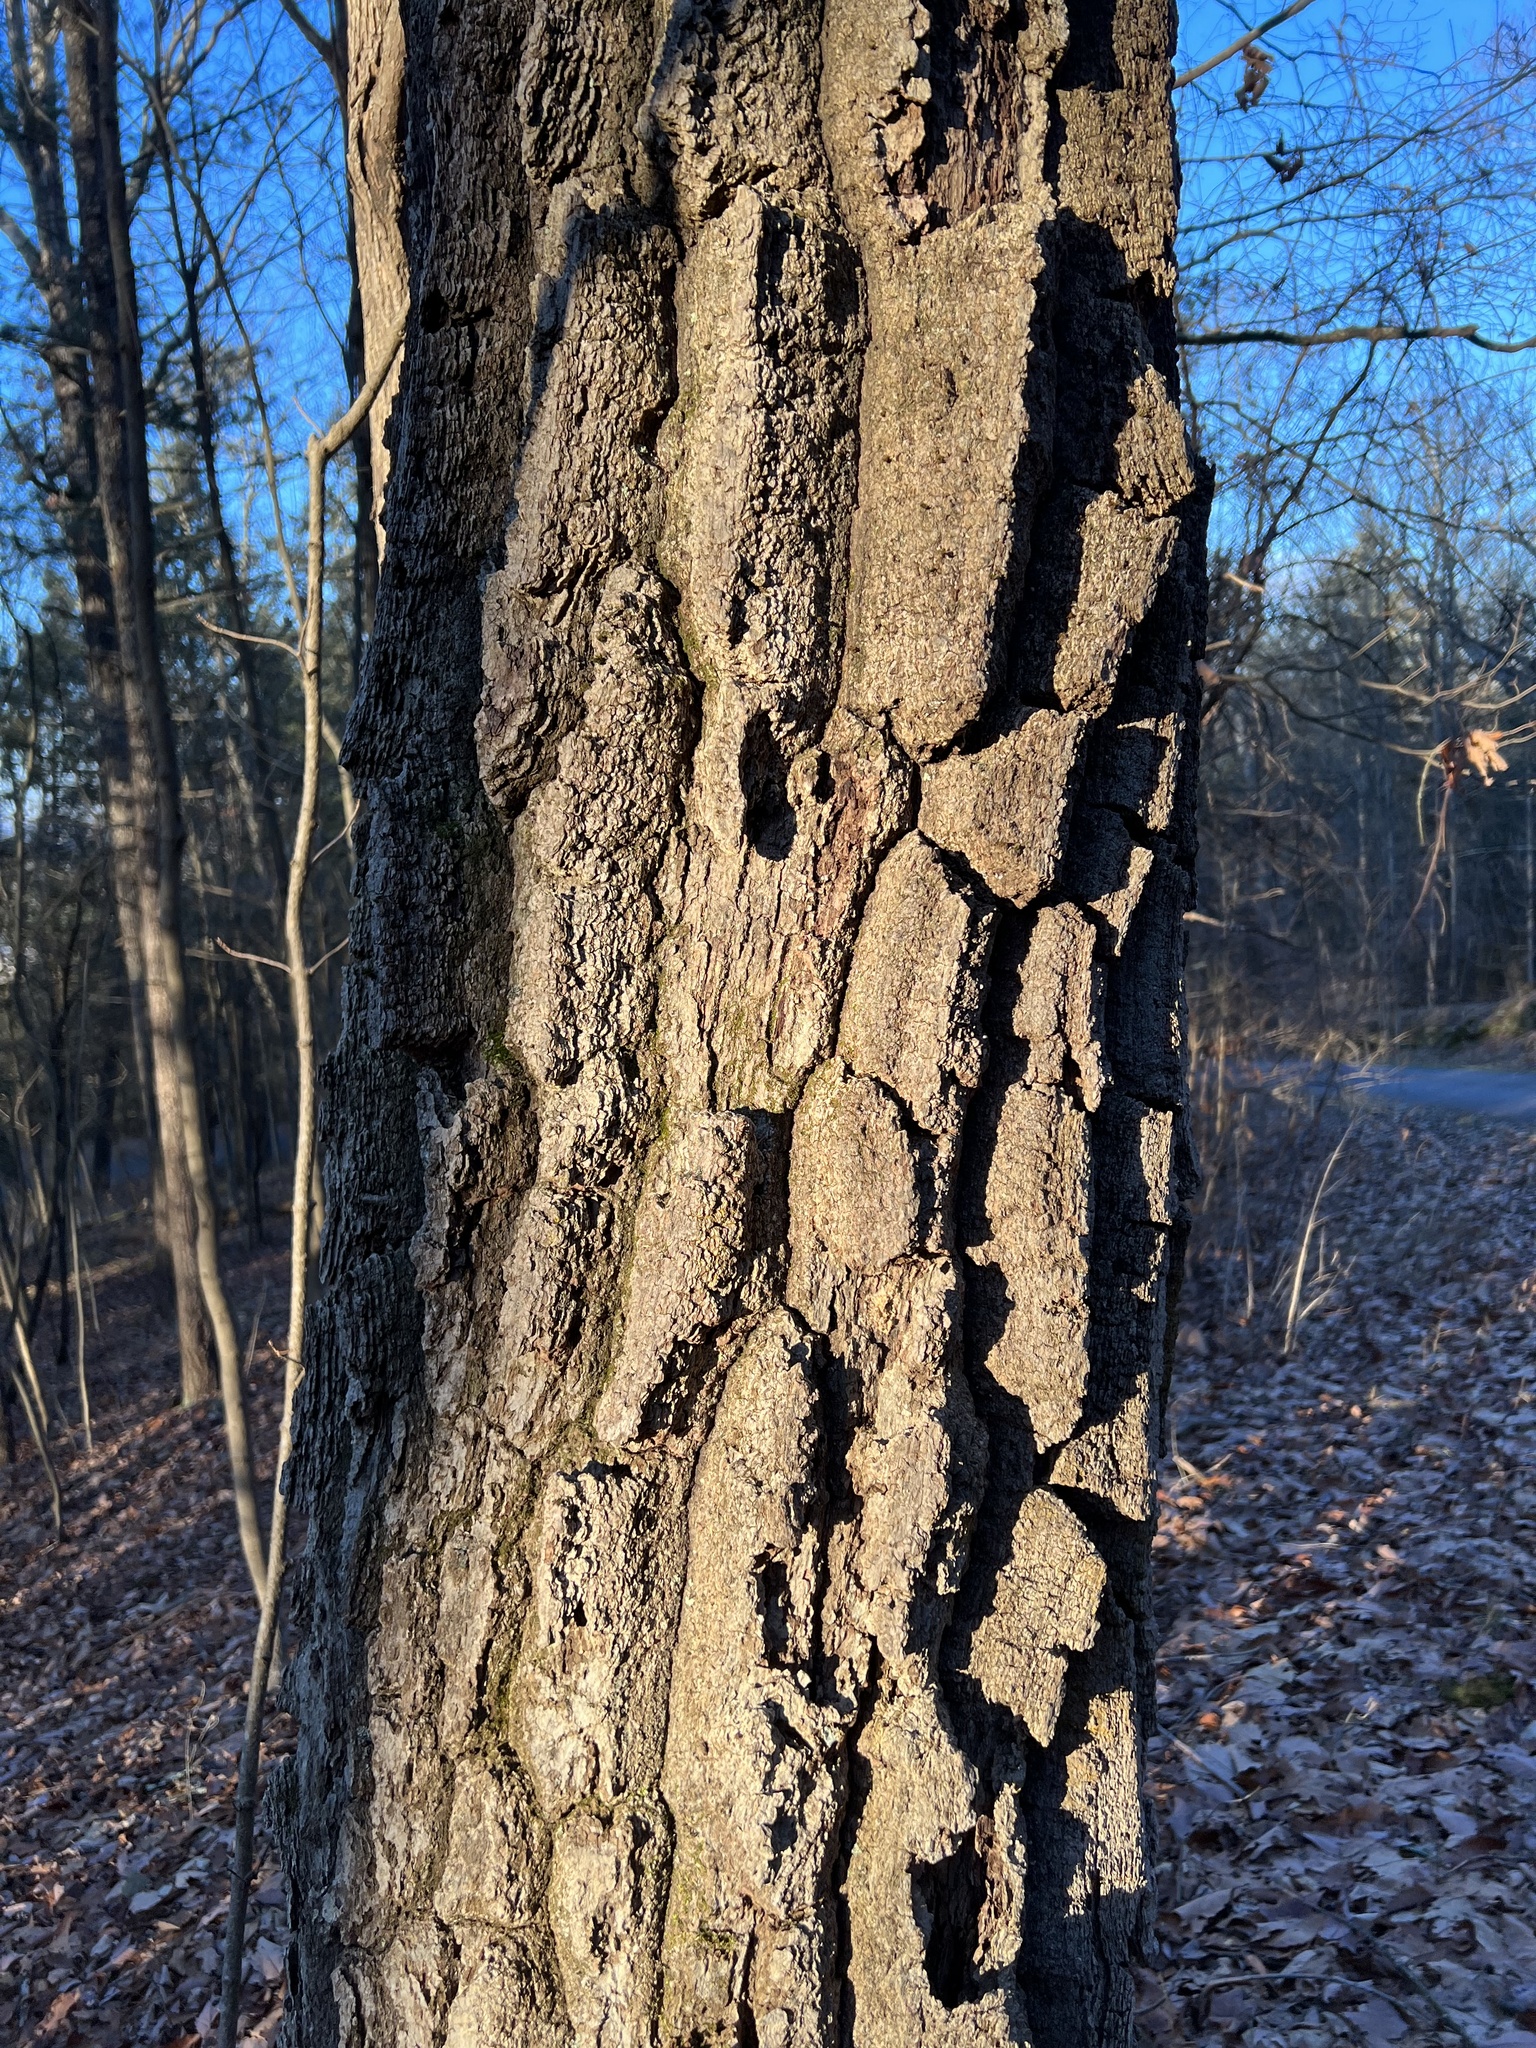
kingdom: Plantae
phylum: Tracheophyta
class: Magnoliopsida
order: Fagales
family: Fagaceae
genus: Quercus
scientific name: Quercus montana
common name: Chestnut oak
